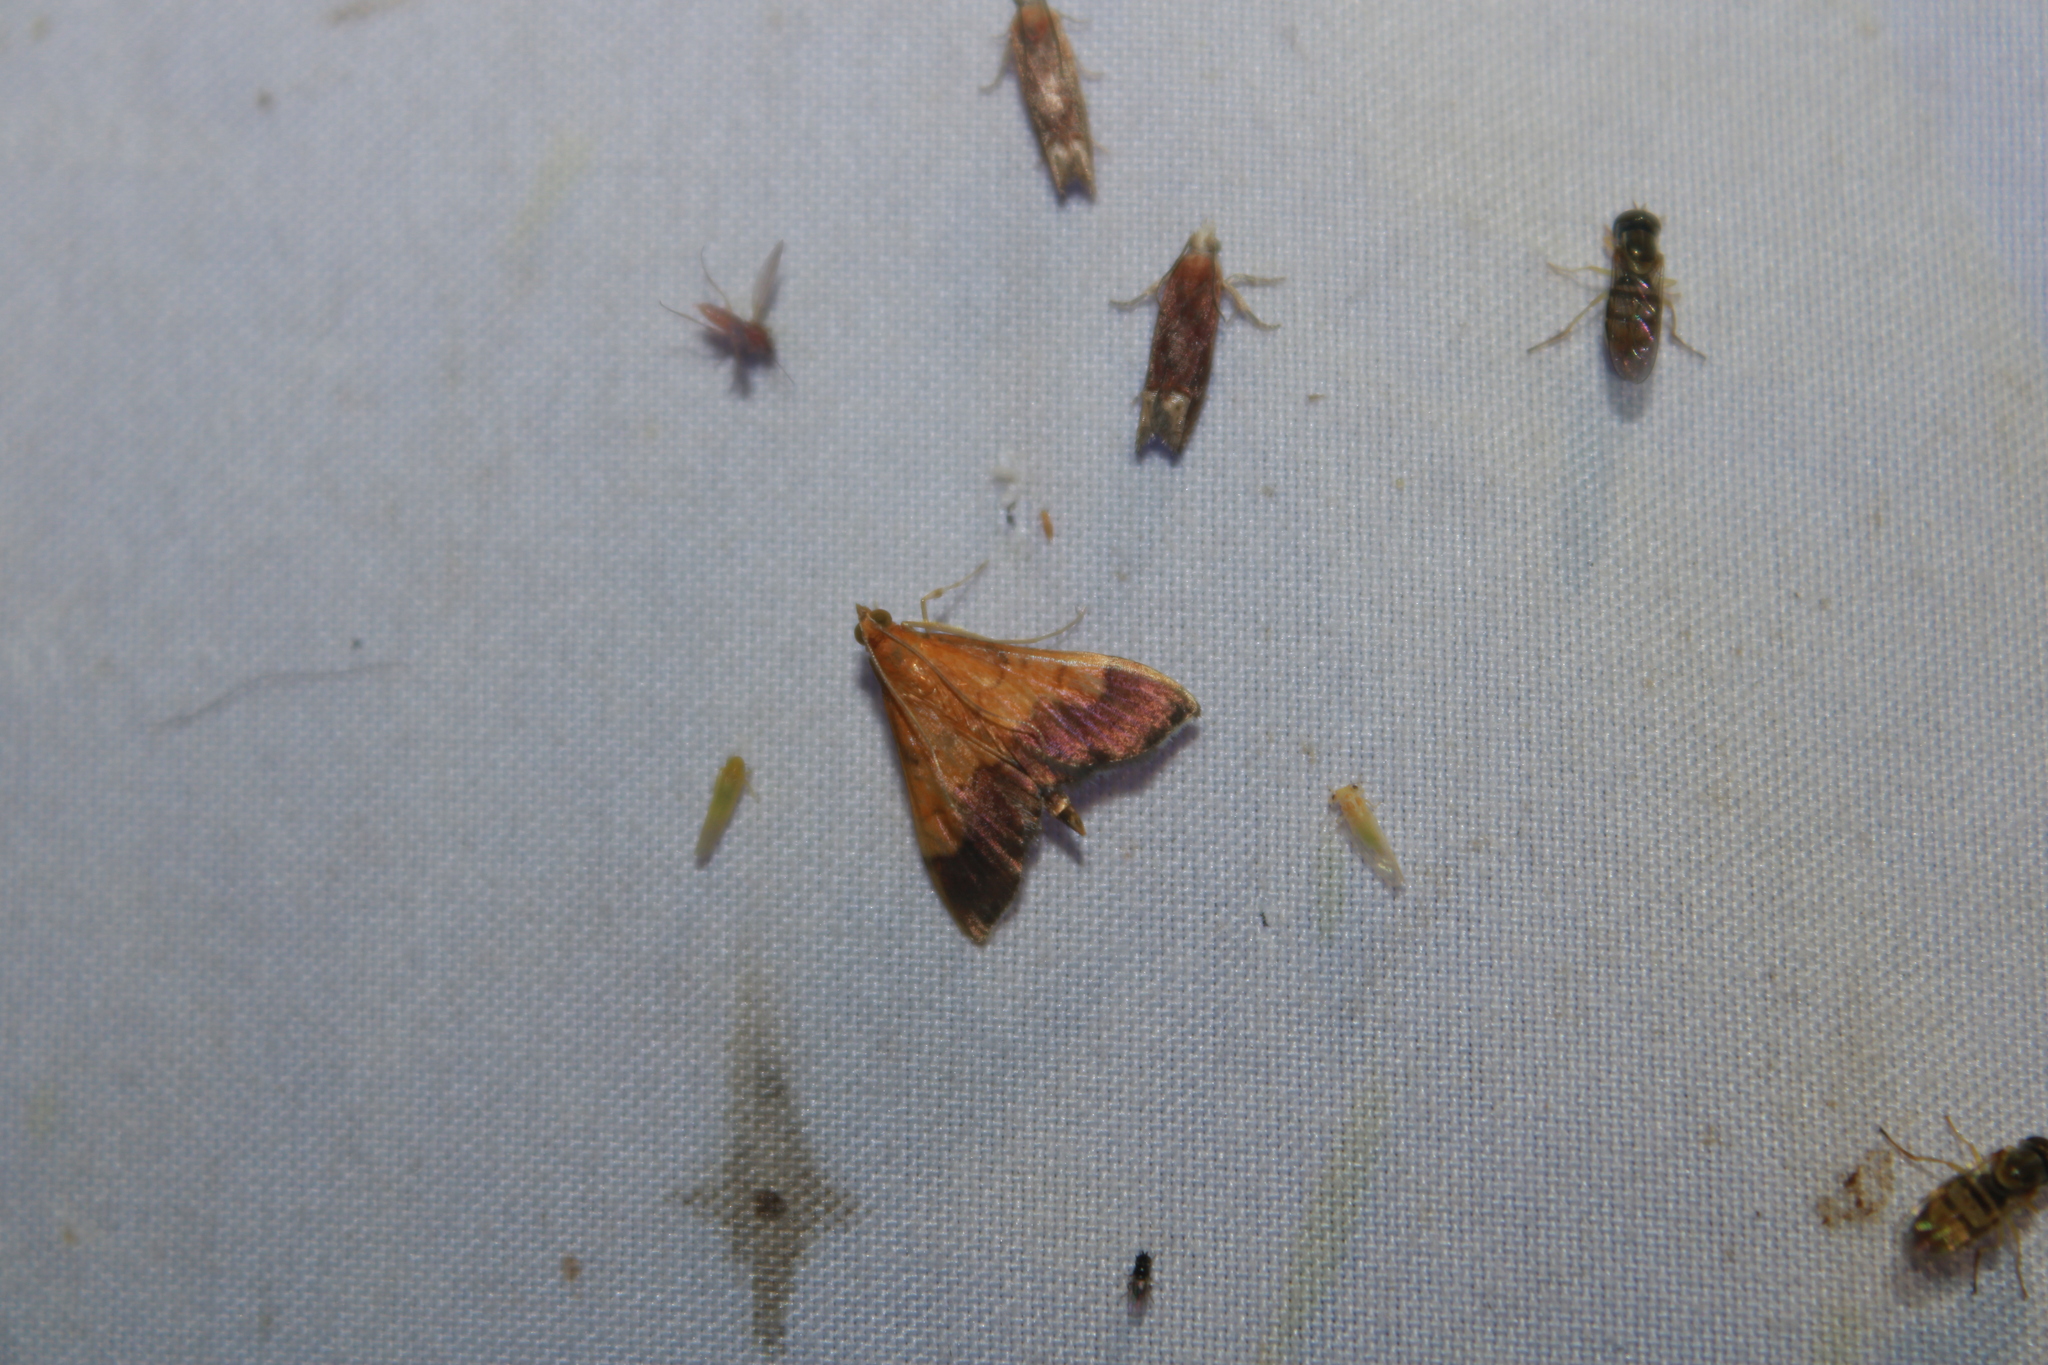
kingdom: Animalia
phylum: Arthropoda
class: Insecta
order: Lepidoptera
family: Crambidae
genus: Pyrausta
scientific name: Pyrausta bicoloralis
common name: Bicolored pyrausta moth
